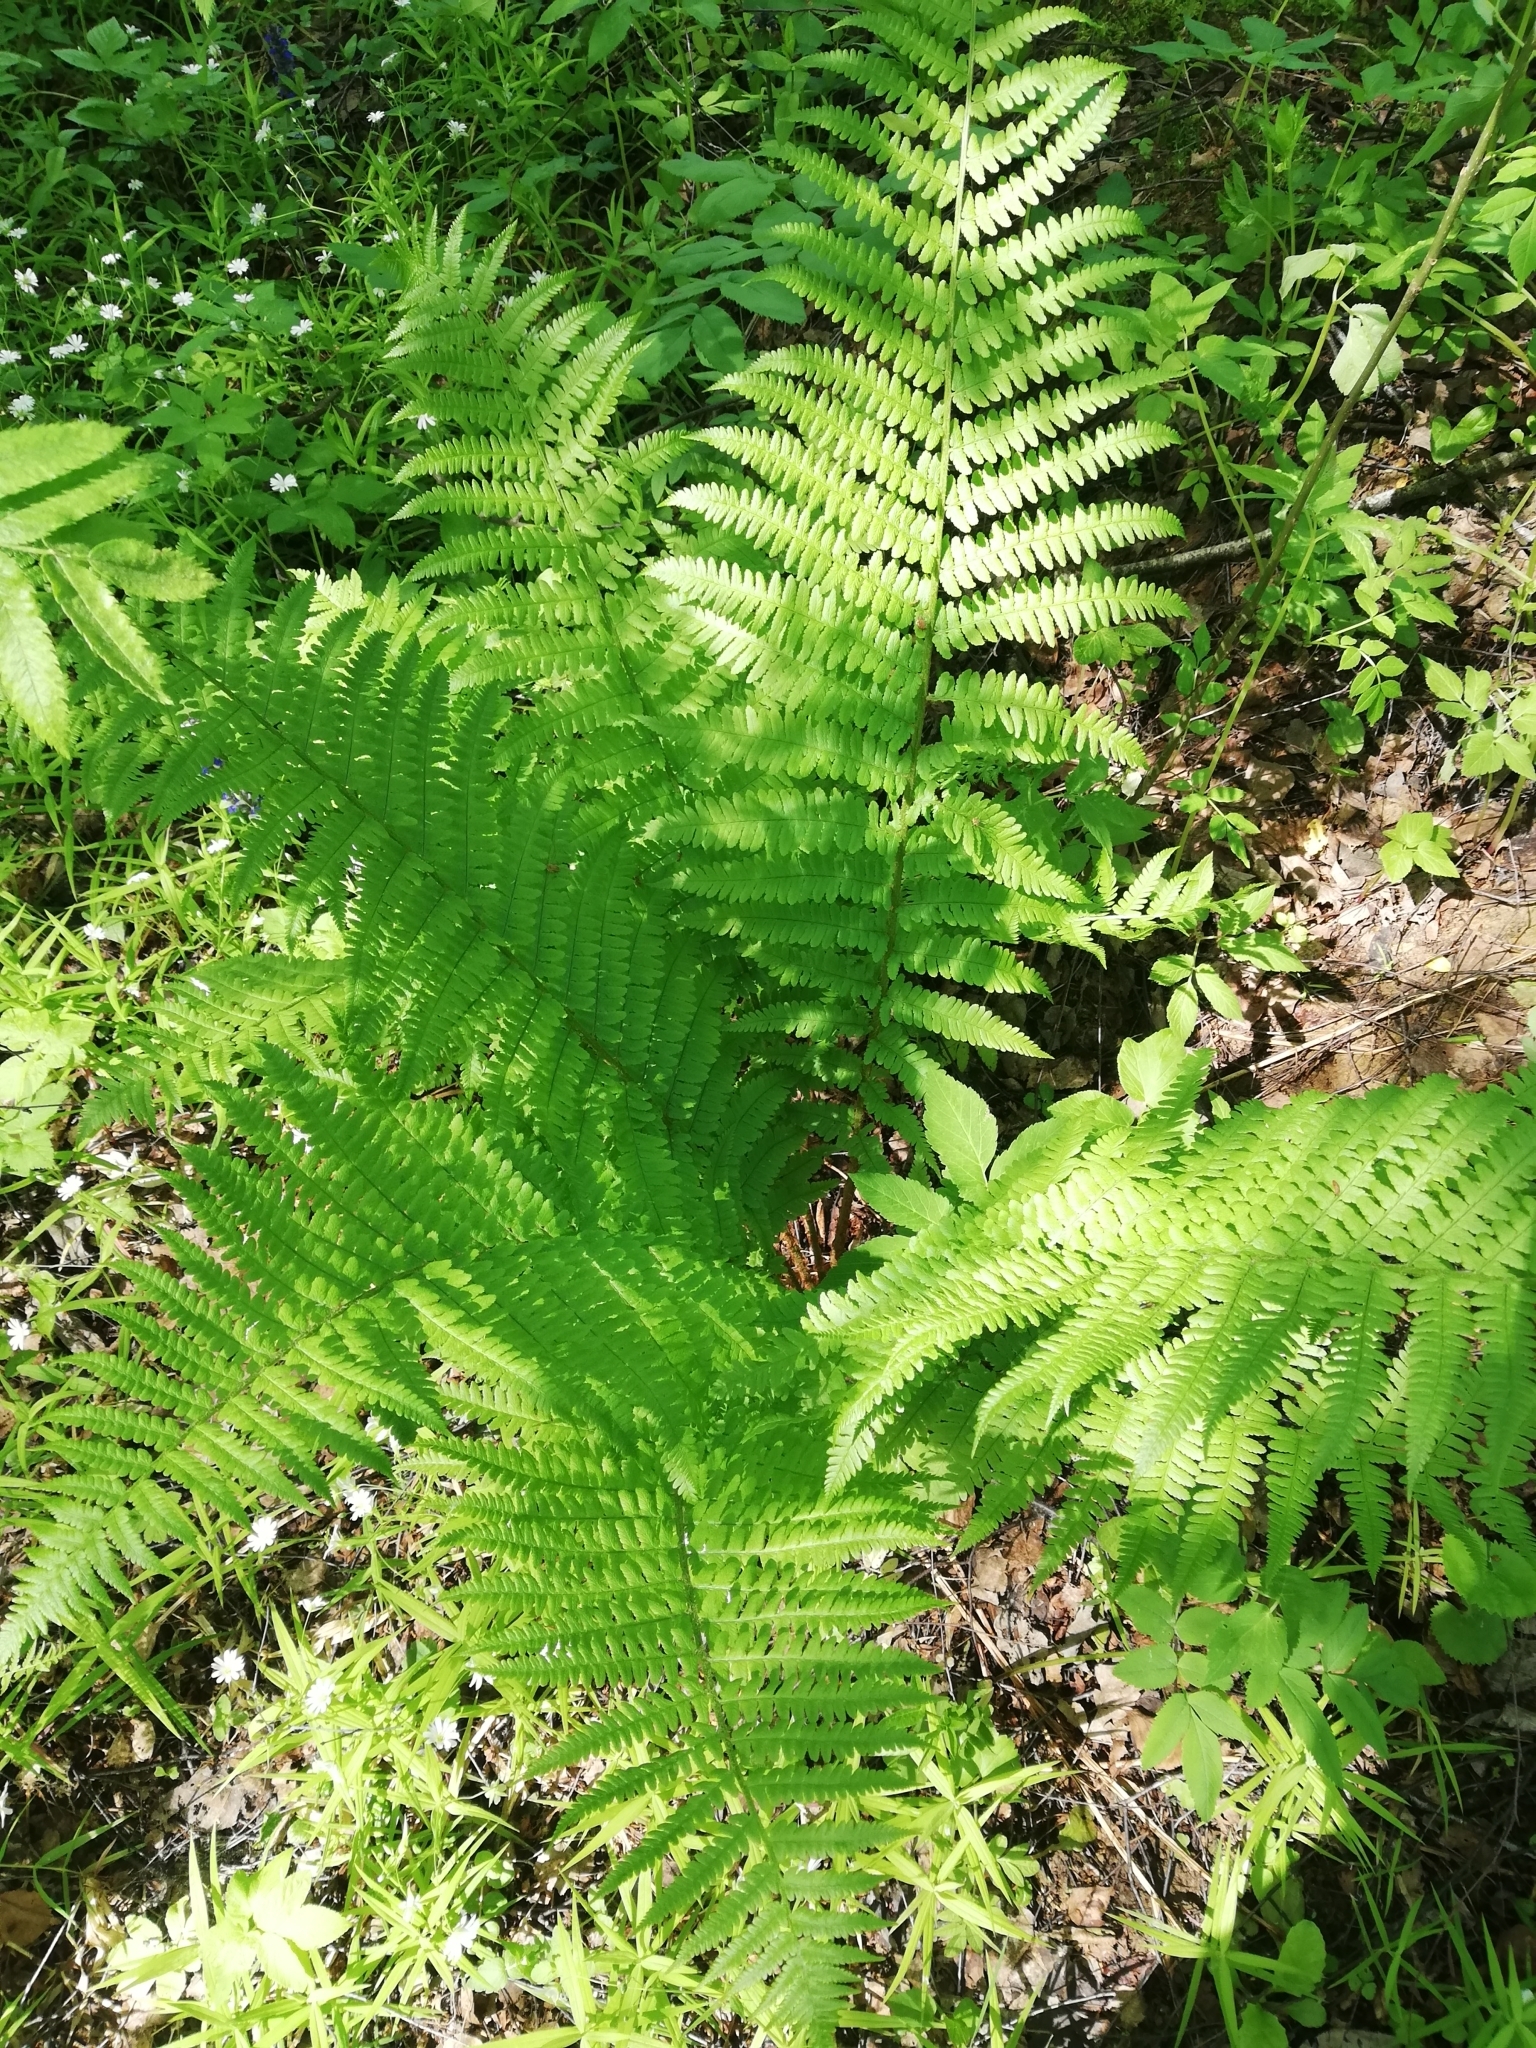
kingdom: Plantae
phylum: Tracheophyta
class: Polypodiopsida
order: Polypodiales
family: Dryopteridaceae
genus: Dryopteris
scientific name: Dryopteris filix-mas
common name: Male fern
